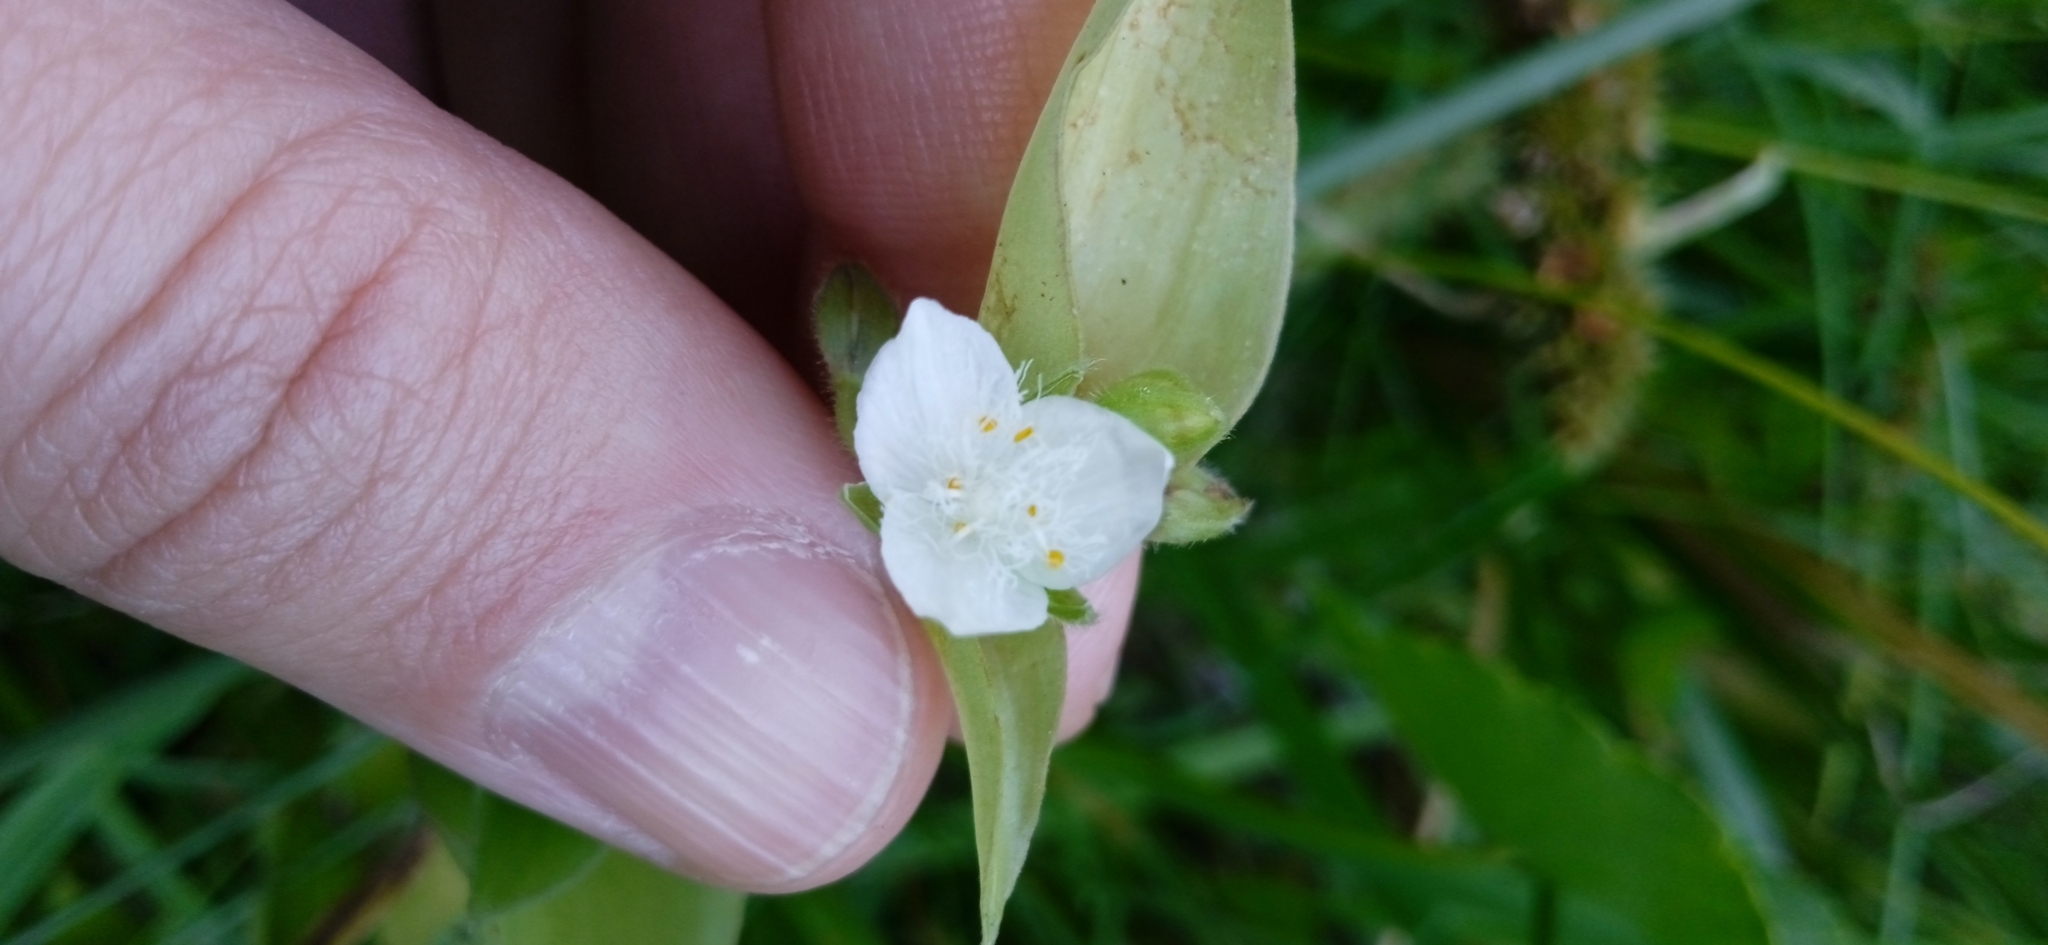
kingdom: Plantae
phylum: Tracheophyta
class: Liliopsida
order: Commelinales
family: Commelinaceae
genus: Tradescantia
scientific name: Tradescantia fluminensis
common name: Wandering-jew
